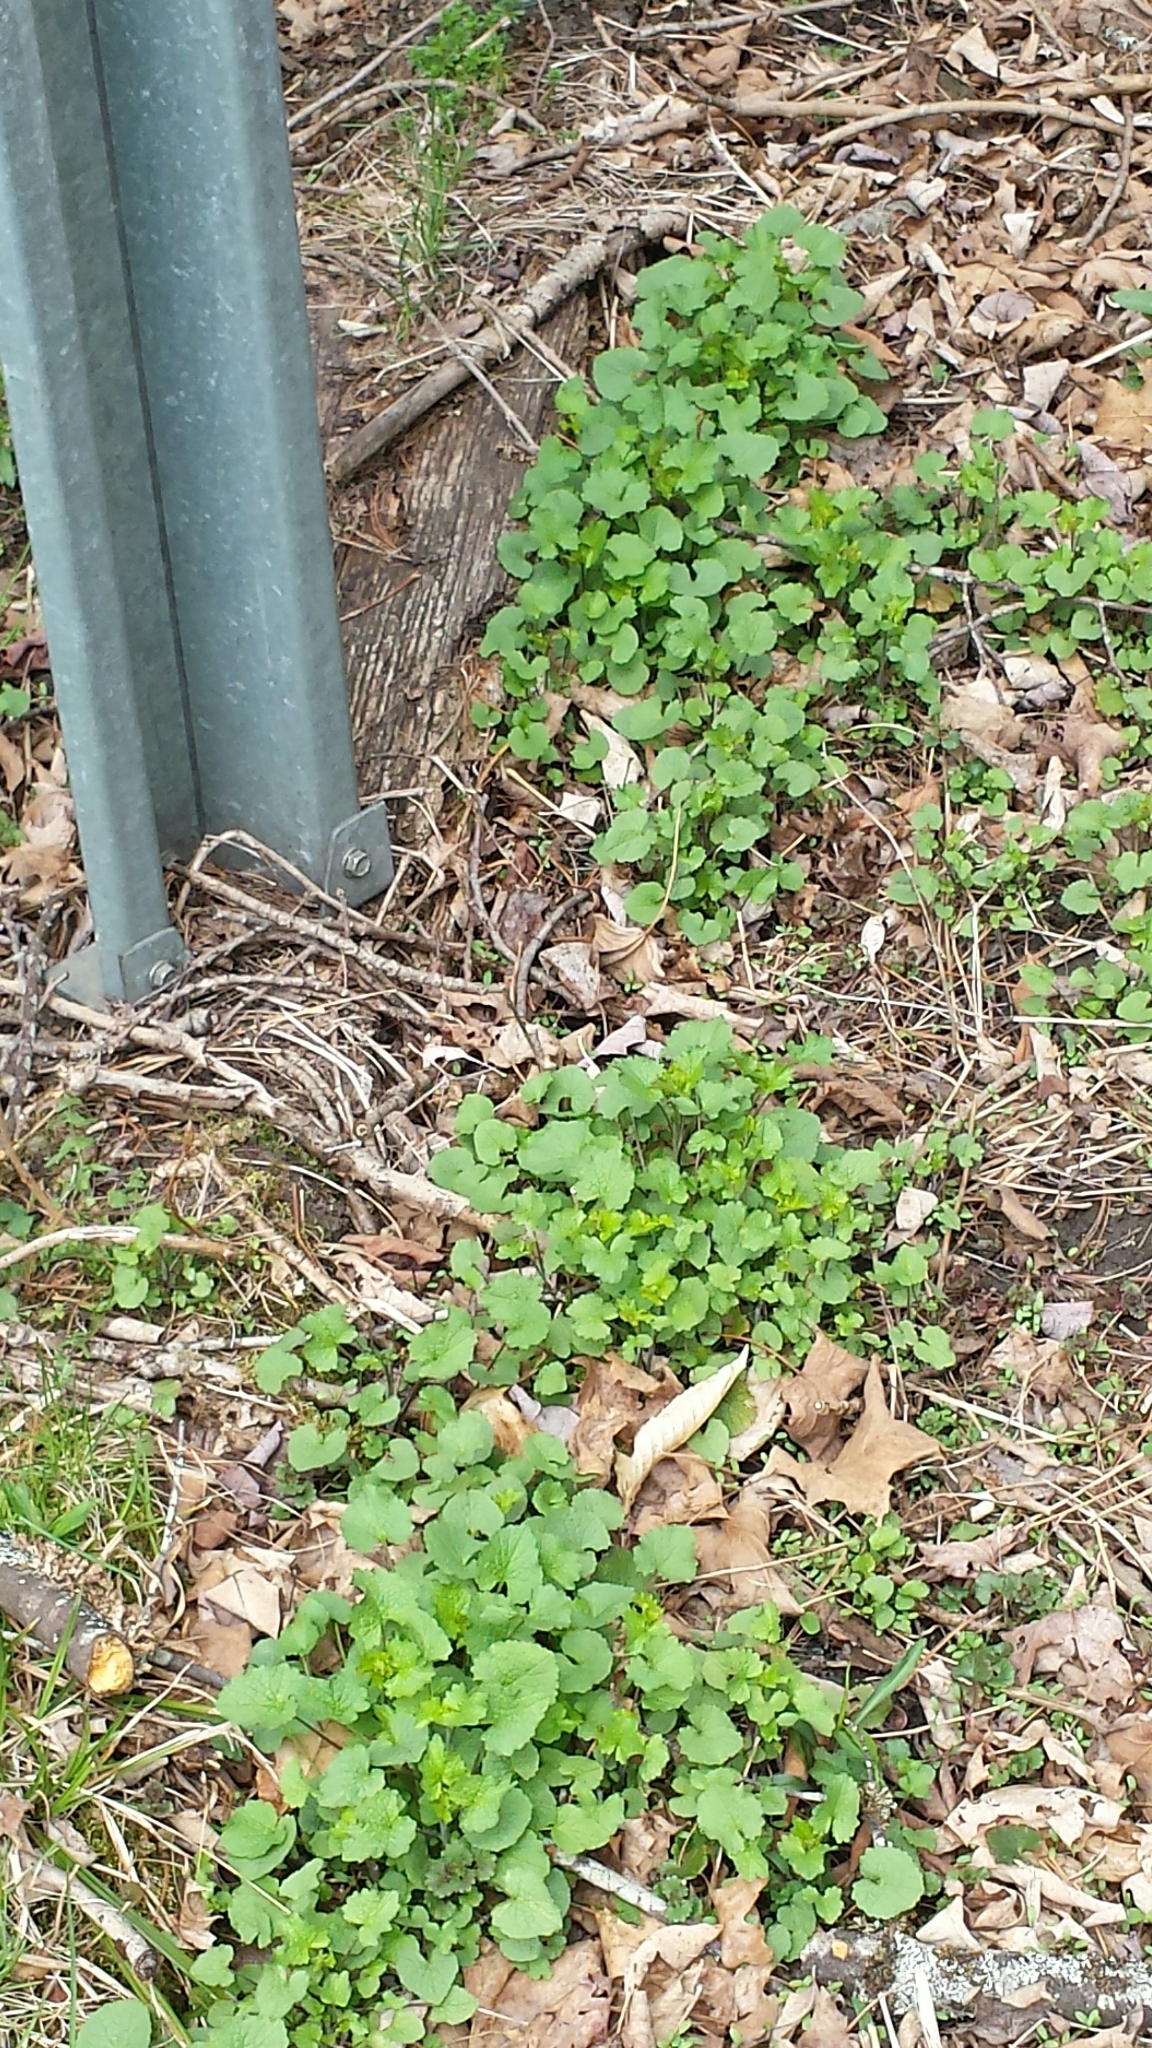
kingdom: Plantae
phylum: Tracheophyta
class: Magnoliopsida
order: Brassicales
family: Brassicaceae
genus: Alliaria
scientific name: Alliaria petiolata
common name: Garlic mustard
